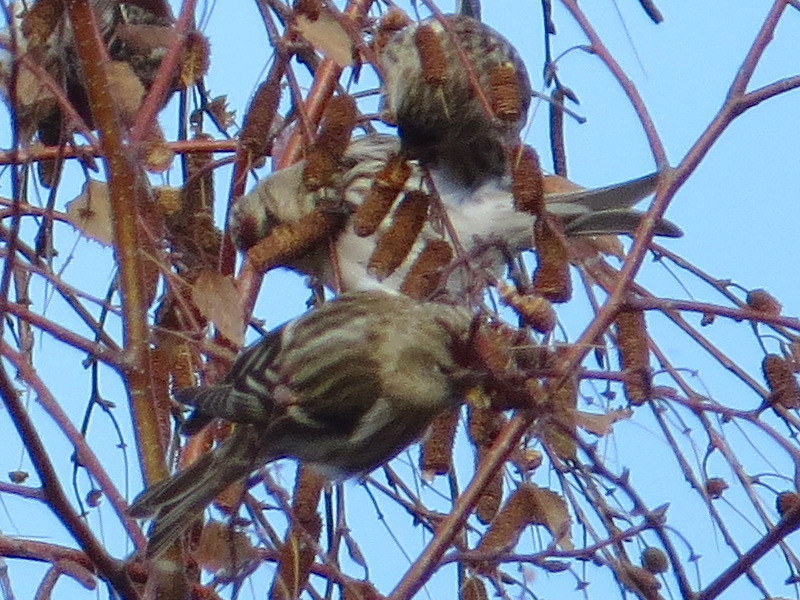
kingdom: Animalia
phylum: Chordata
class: Aves
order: Passeriformes
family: Fringillidae
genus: Acanthis
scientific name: Acanthis flammea
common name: Common redpoll
